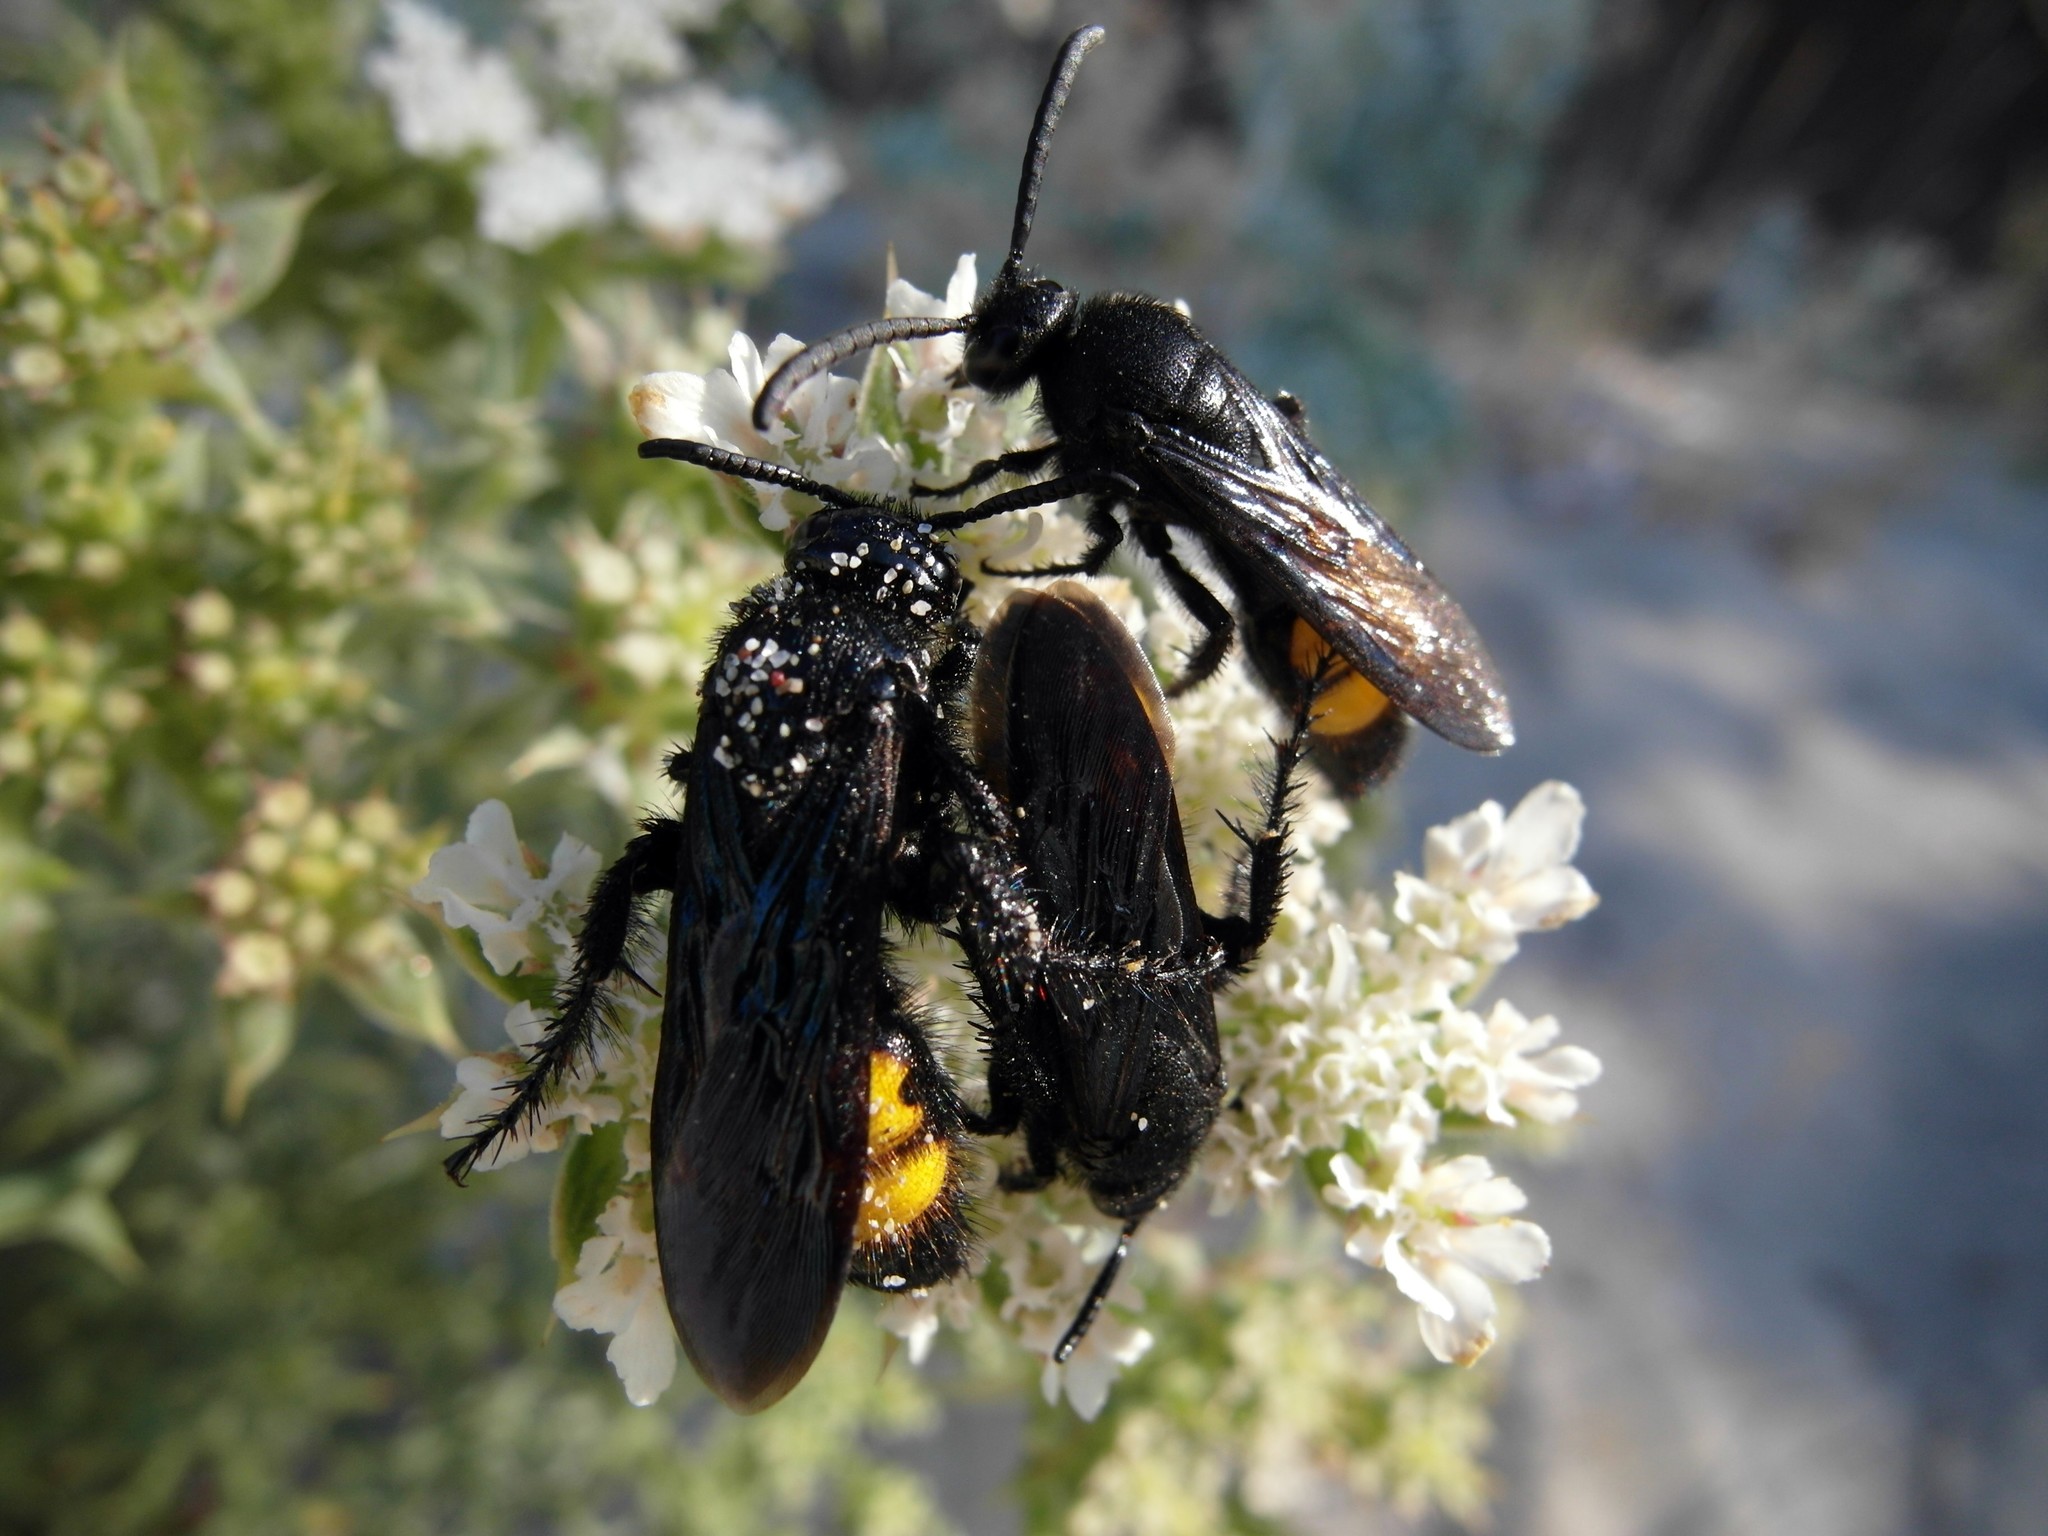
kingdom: Animalia
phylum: Arthropoda
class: Insecta
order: Hymenoptera
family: Scoliidae
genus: Scolia
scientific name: Scolia hirta
